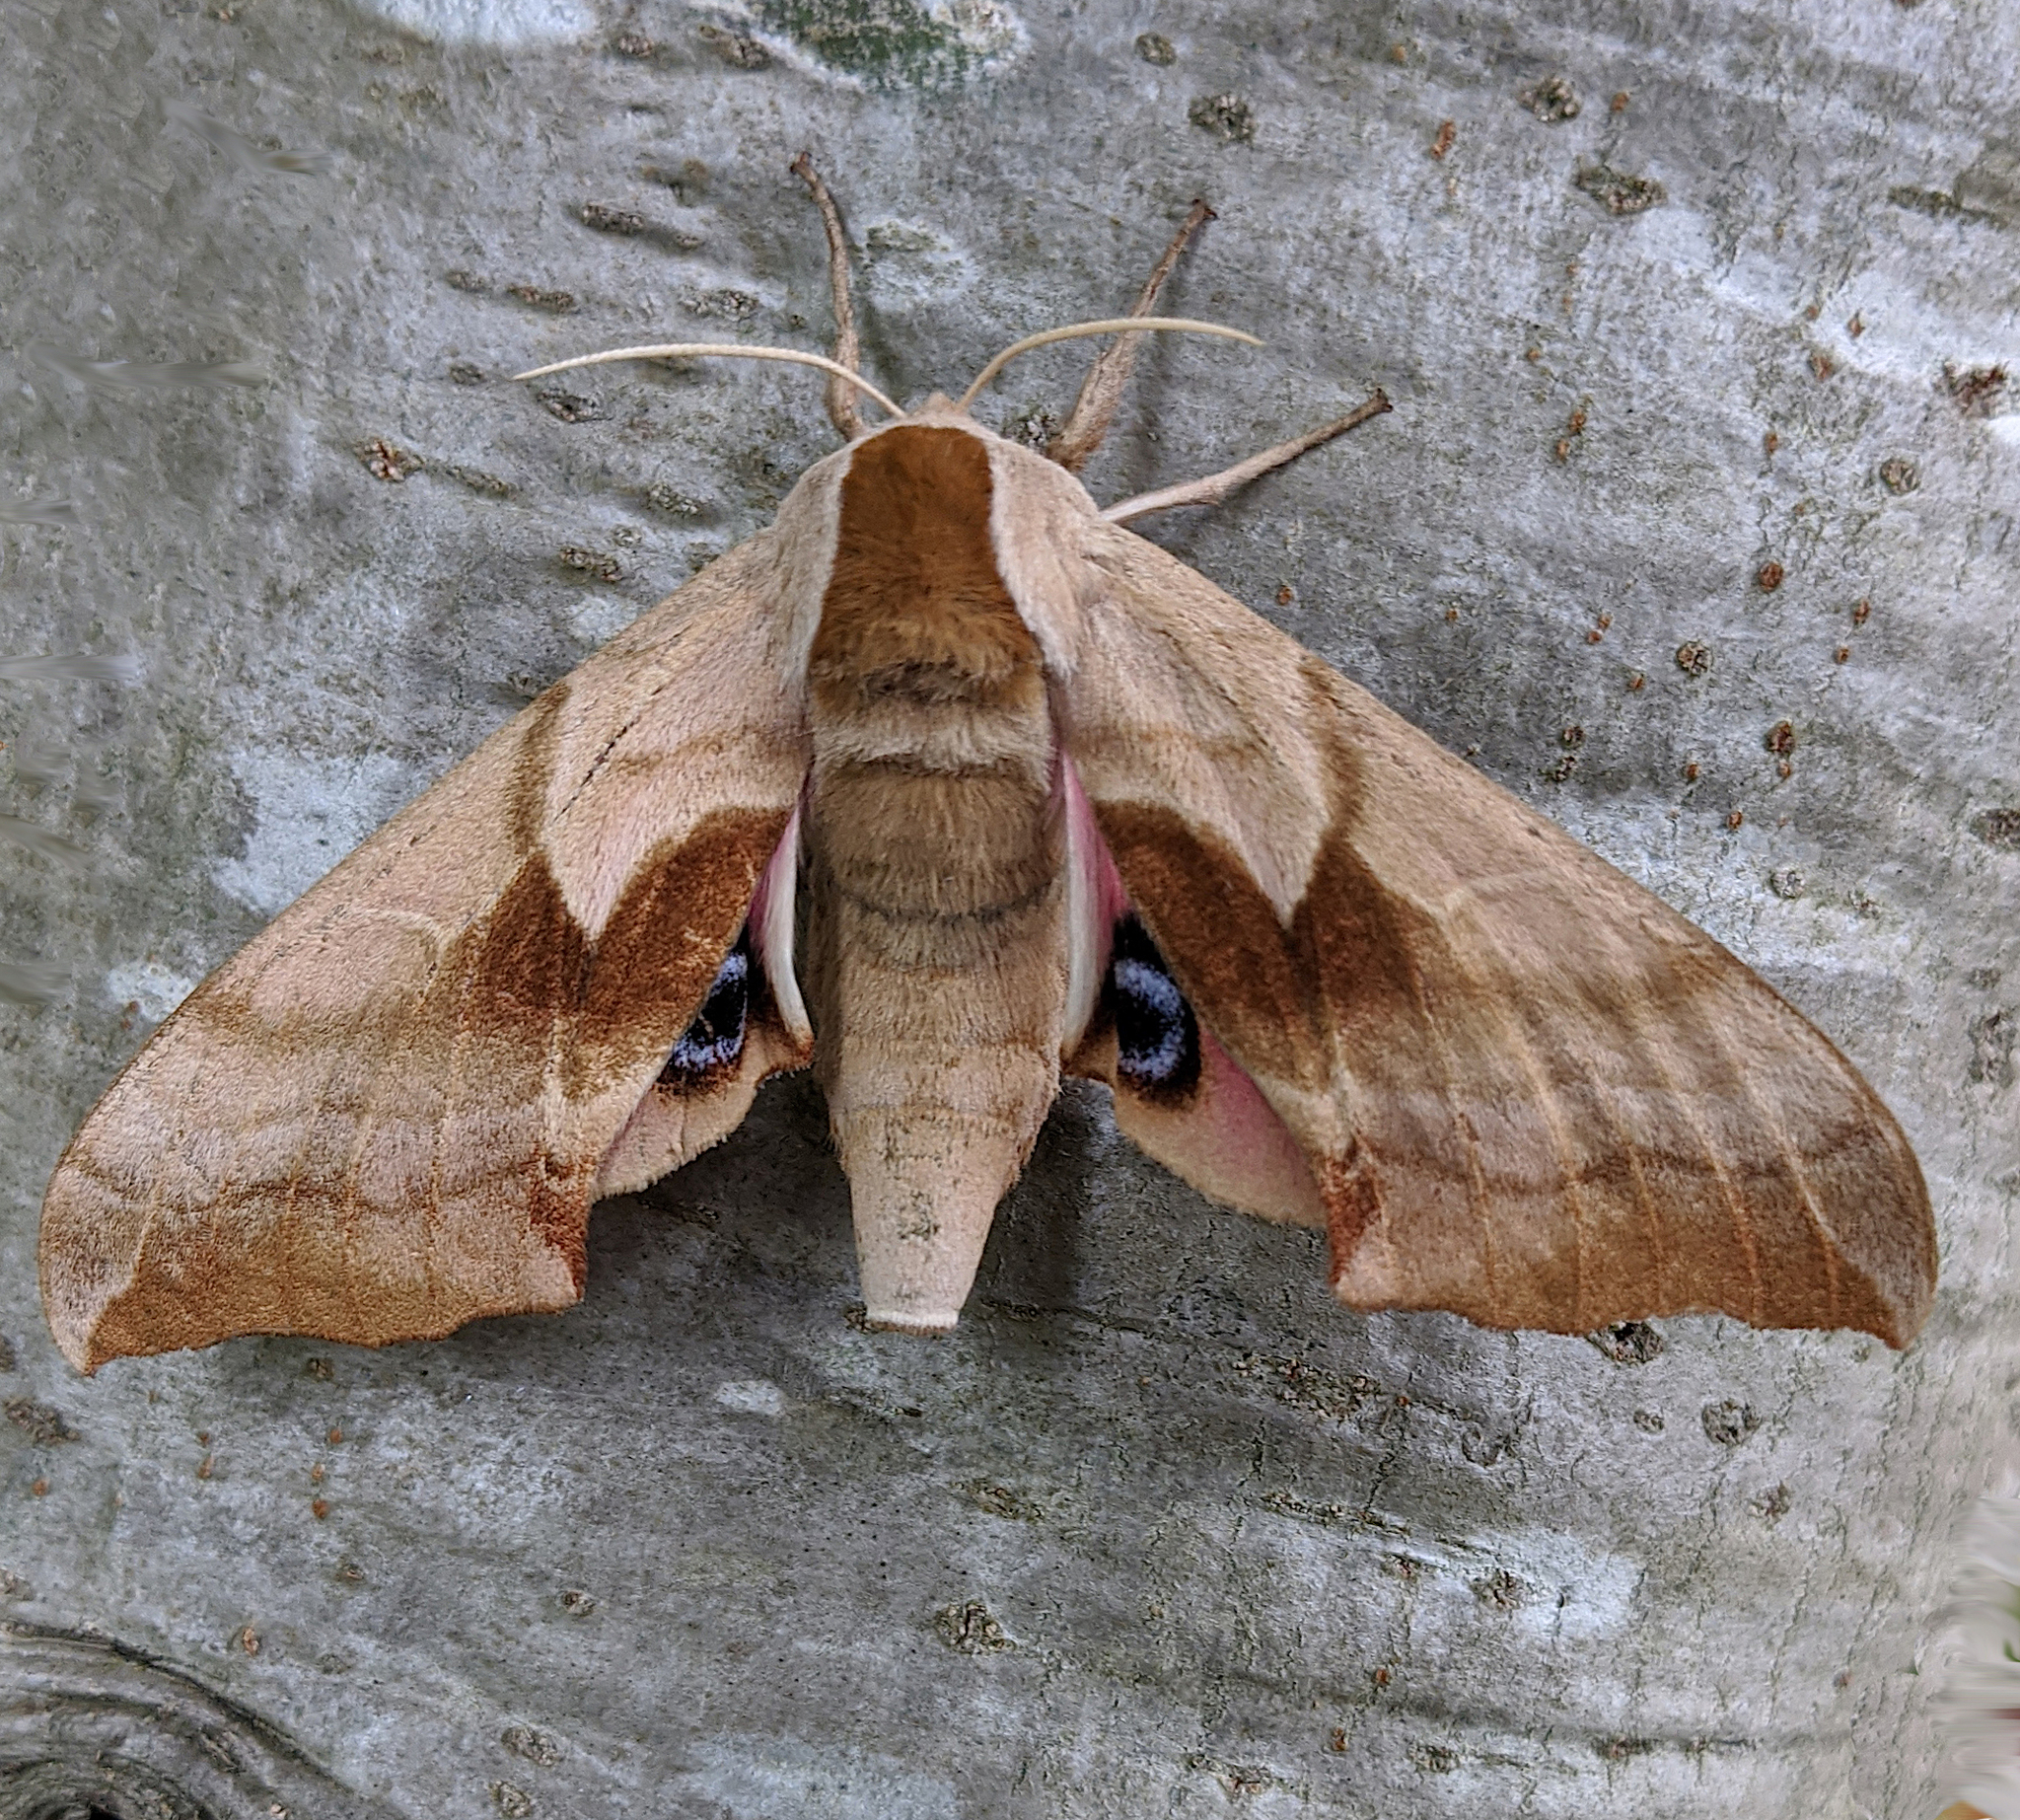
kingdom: Animalia
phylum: Arthropoda
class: Insecta
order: Lepidoptera
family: Sphingidae
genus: Smerinthus
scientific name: Smerinthus cerisyi
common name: Cerisy's sphinx moth
